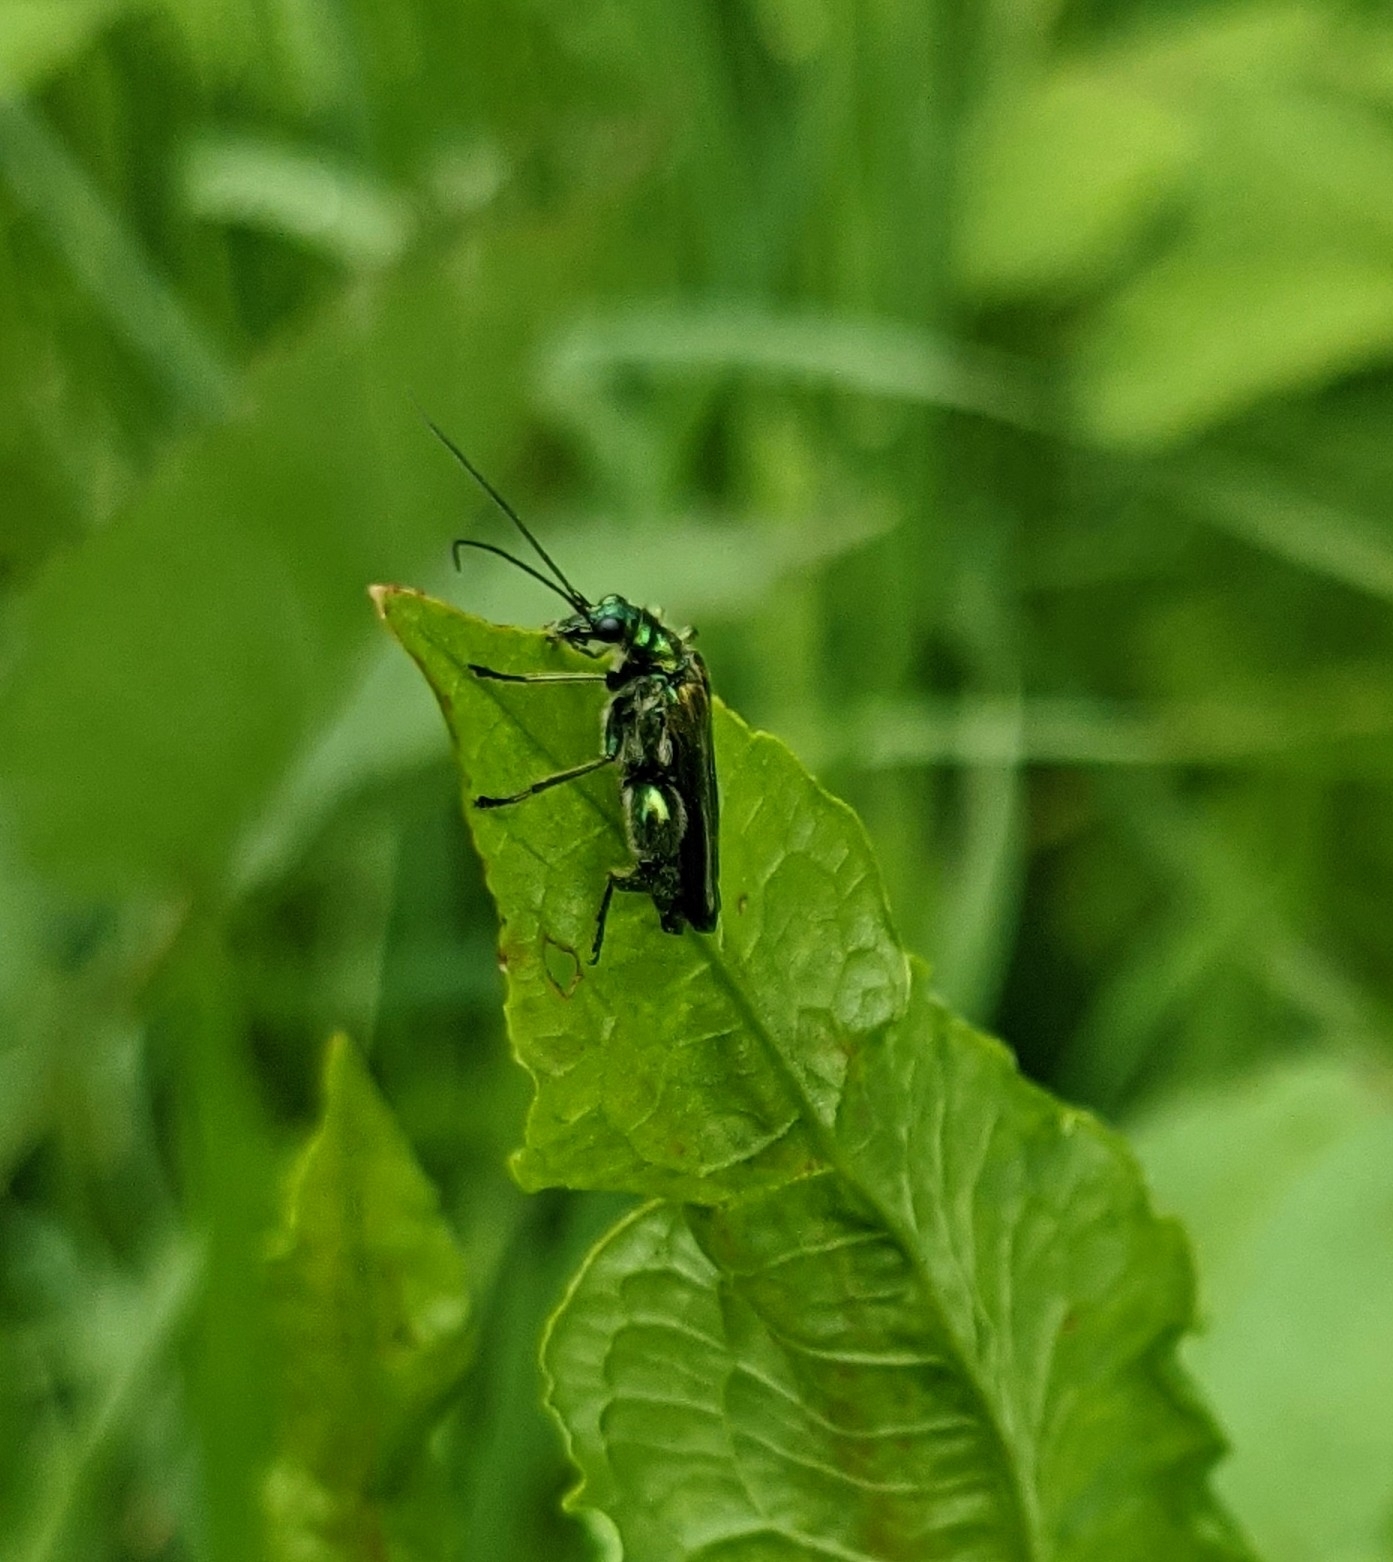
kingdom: Animalia
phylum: Arthropoda
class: Insecta
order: Coleoptera
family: Oedemeridae
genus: Oedemera
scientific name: Oedemera nobilis
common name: Swollen-thighed beetle
